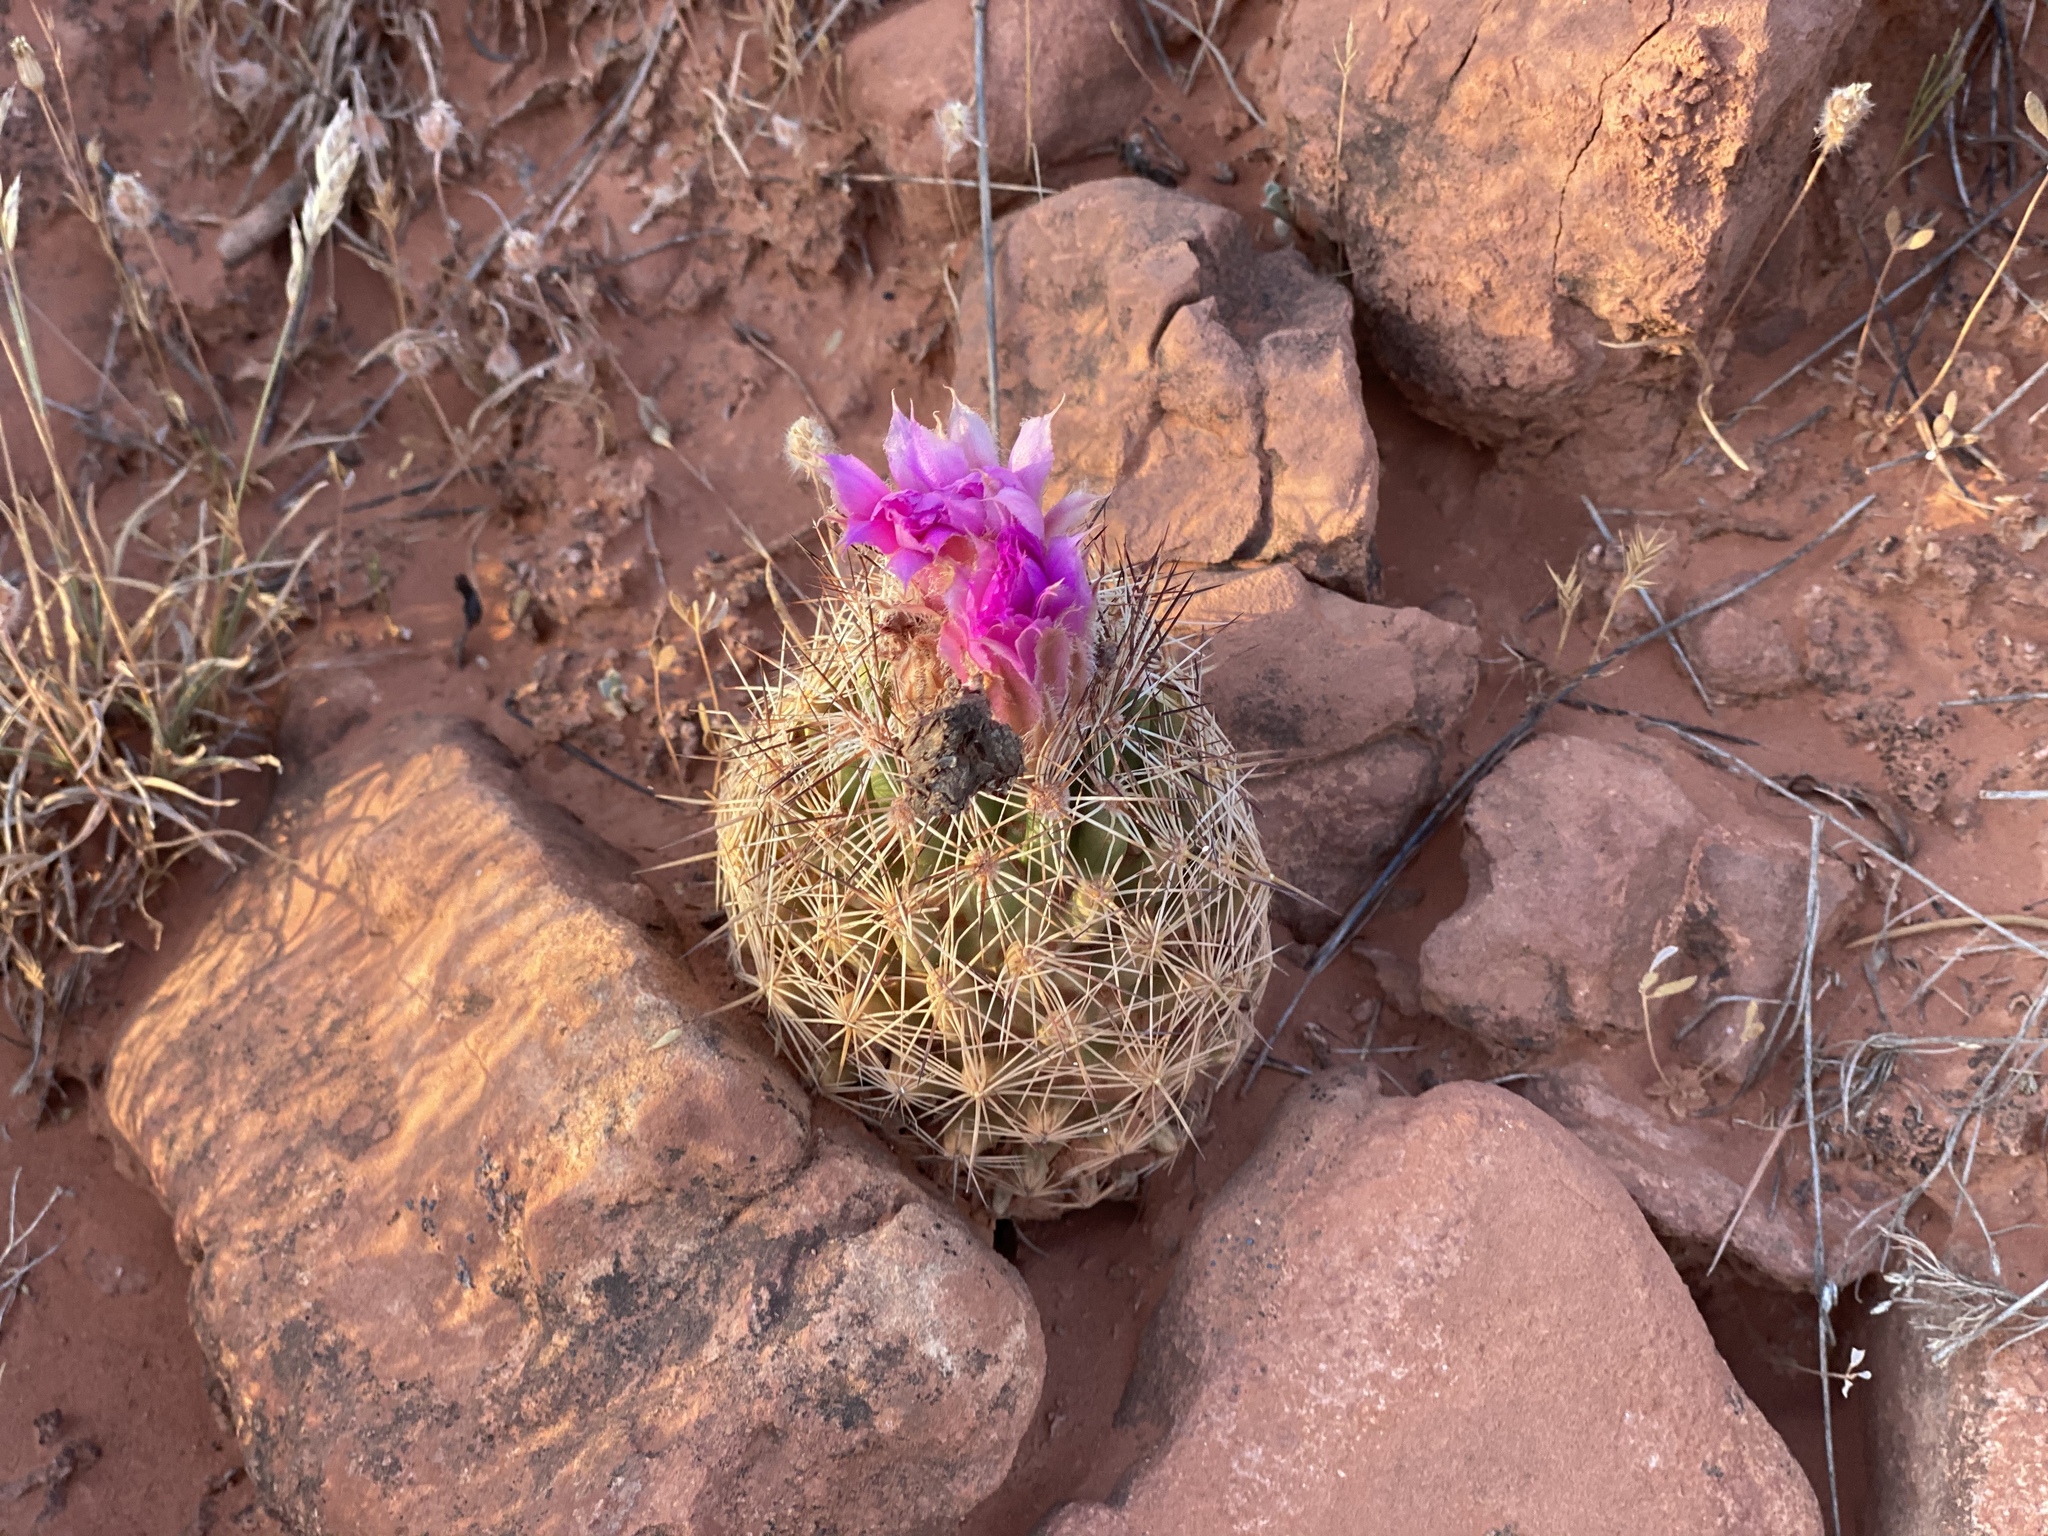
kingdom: Plantae
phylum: Tracheophyta
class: Magnoliopsida
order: Caryophyllales
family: Cactaceae
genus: Pelecyphora
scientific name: Pelecyphora vivipara
